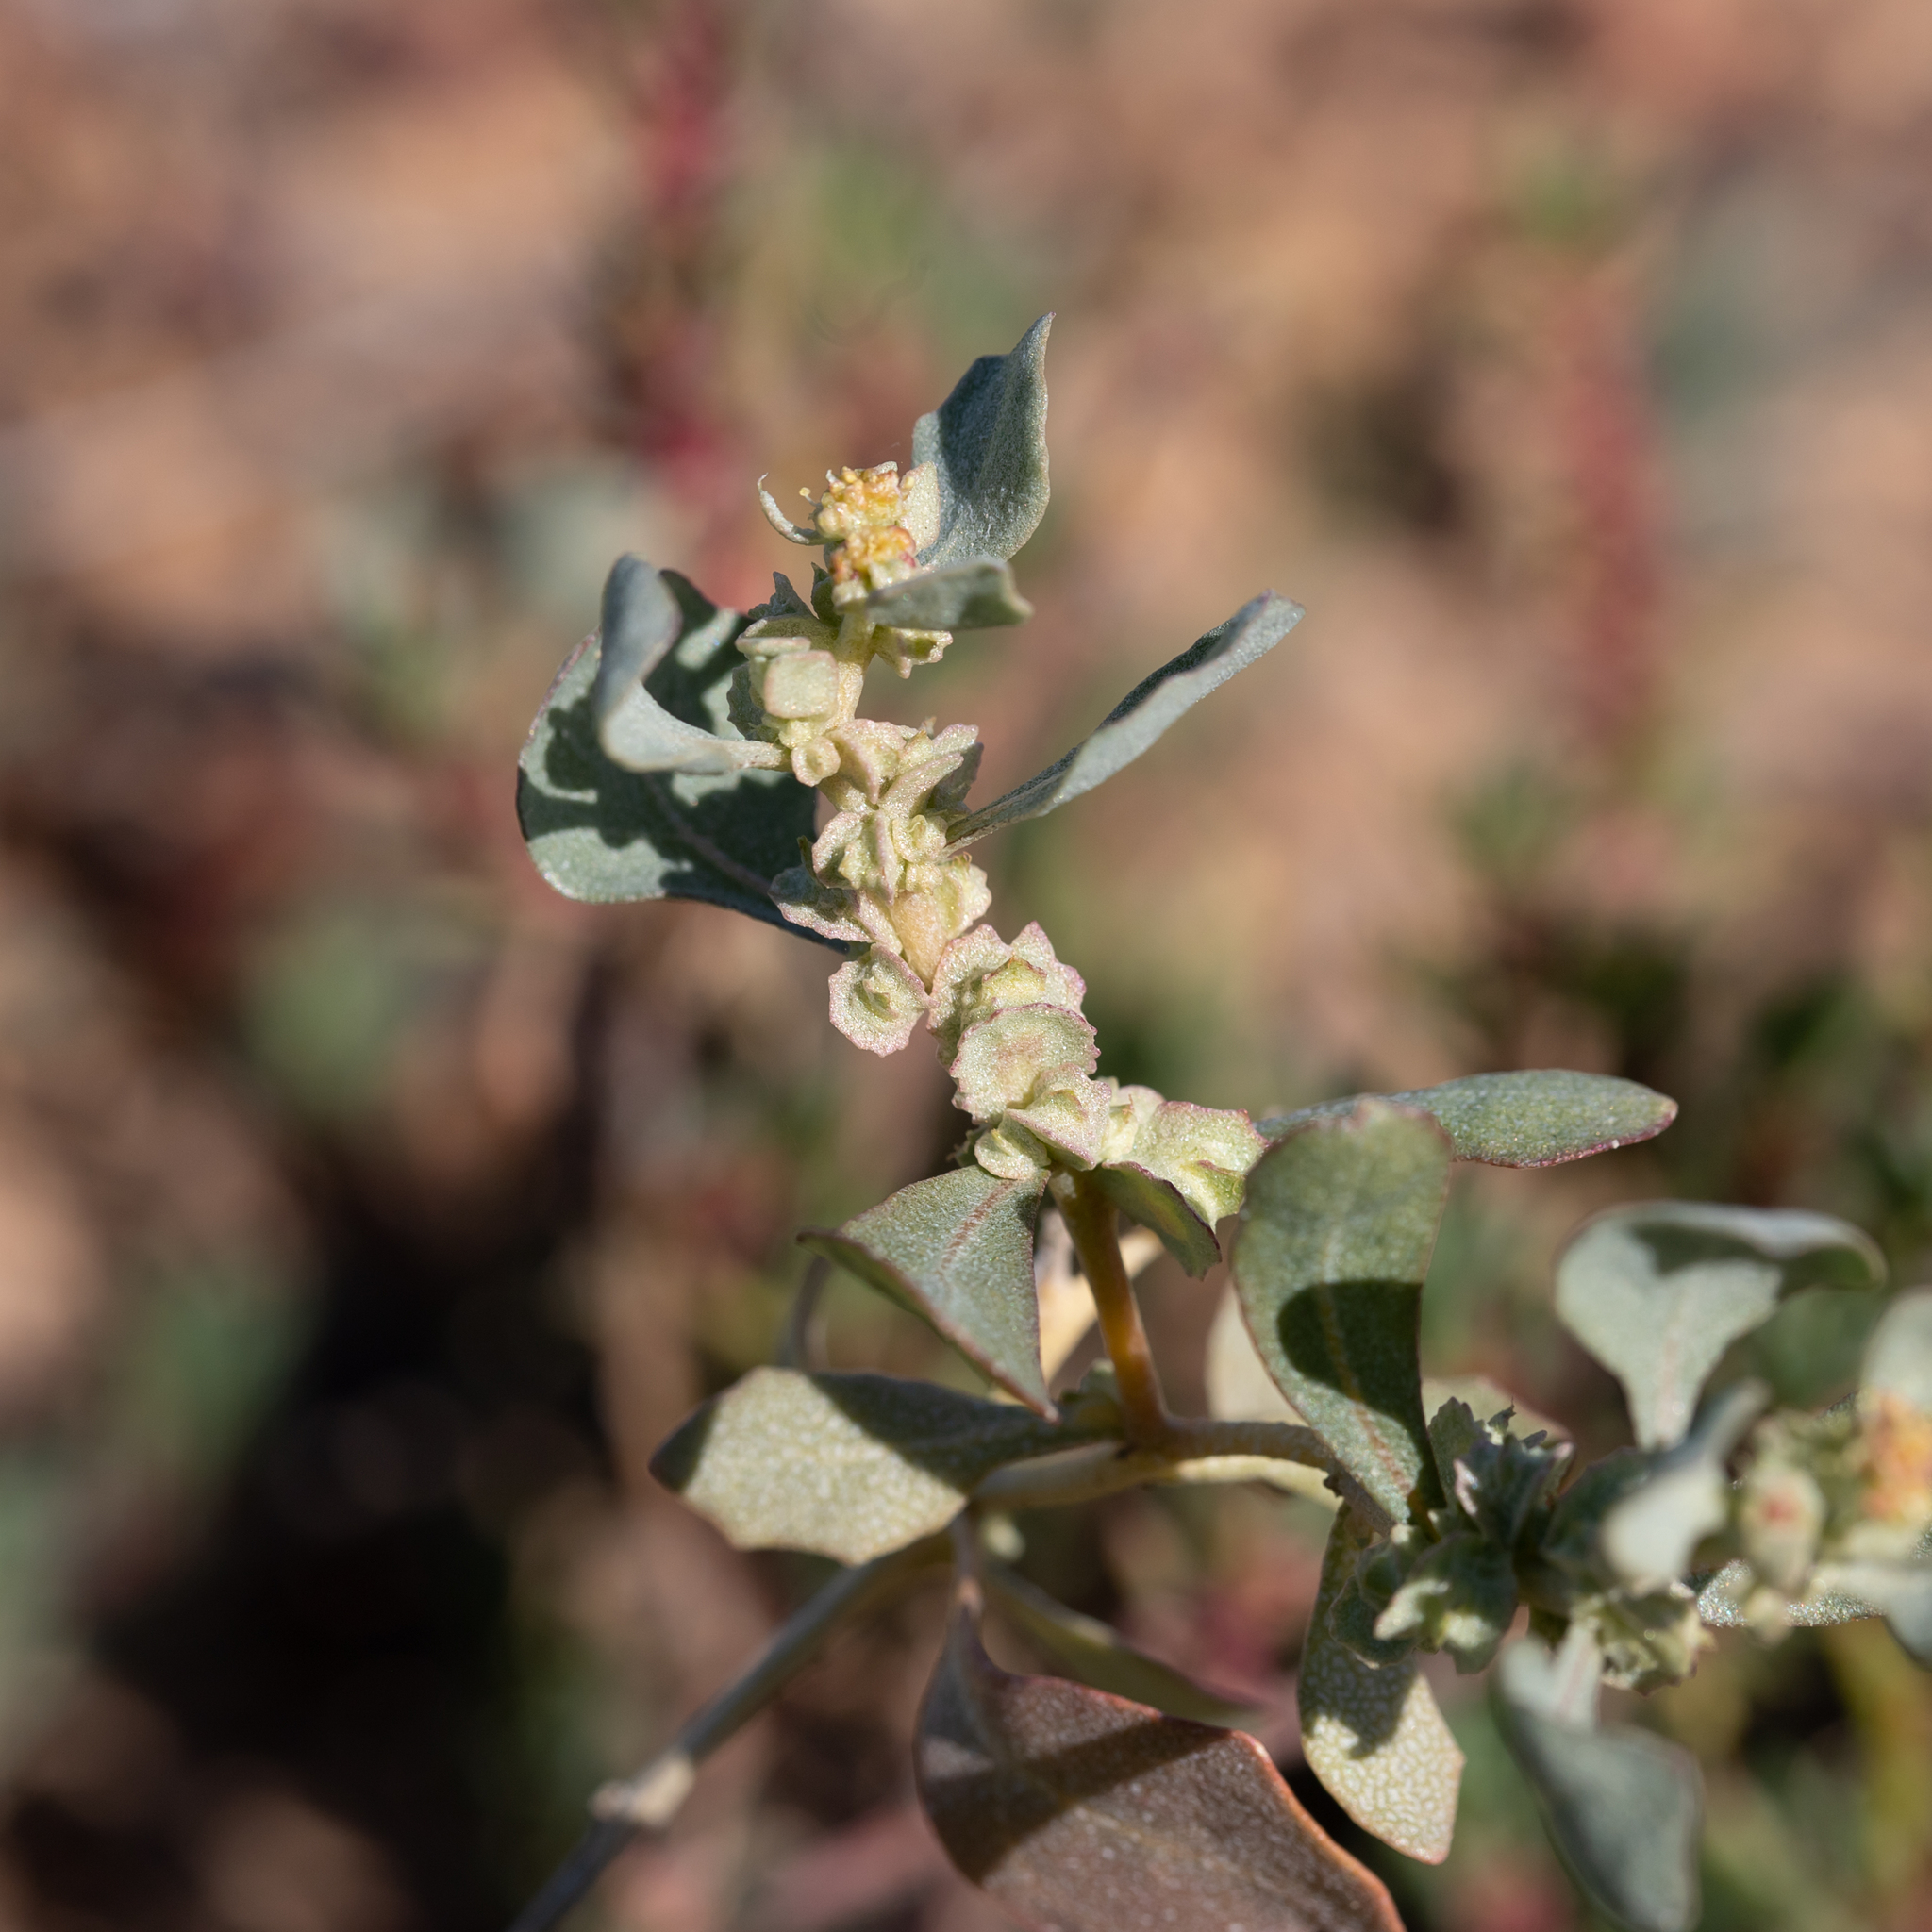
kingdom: Plantae
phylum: Tracheophyta
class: Magnoliopsida
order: Caryophyllales
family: Amaranthaceae
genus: Atriplex
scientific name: Atriplex lindleyi
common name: Lindley's saltbush
